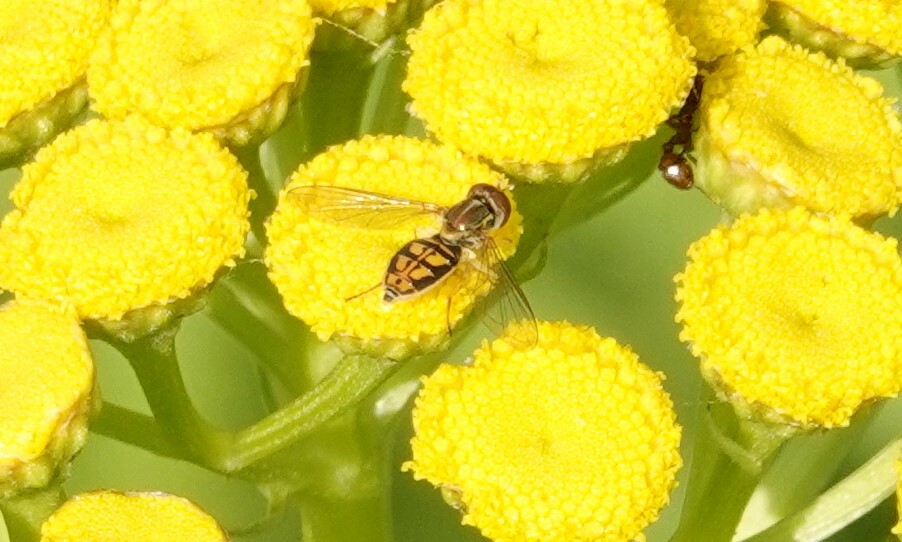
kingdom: Animalia
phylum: Arthropoda
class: Insecta
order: Diptera
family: Syrphidae
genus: Toxomerus
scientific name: Toxomerus marginatus
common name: Syrphid fly
